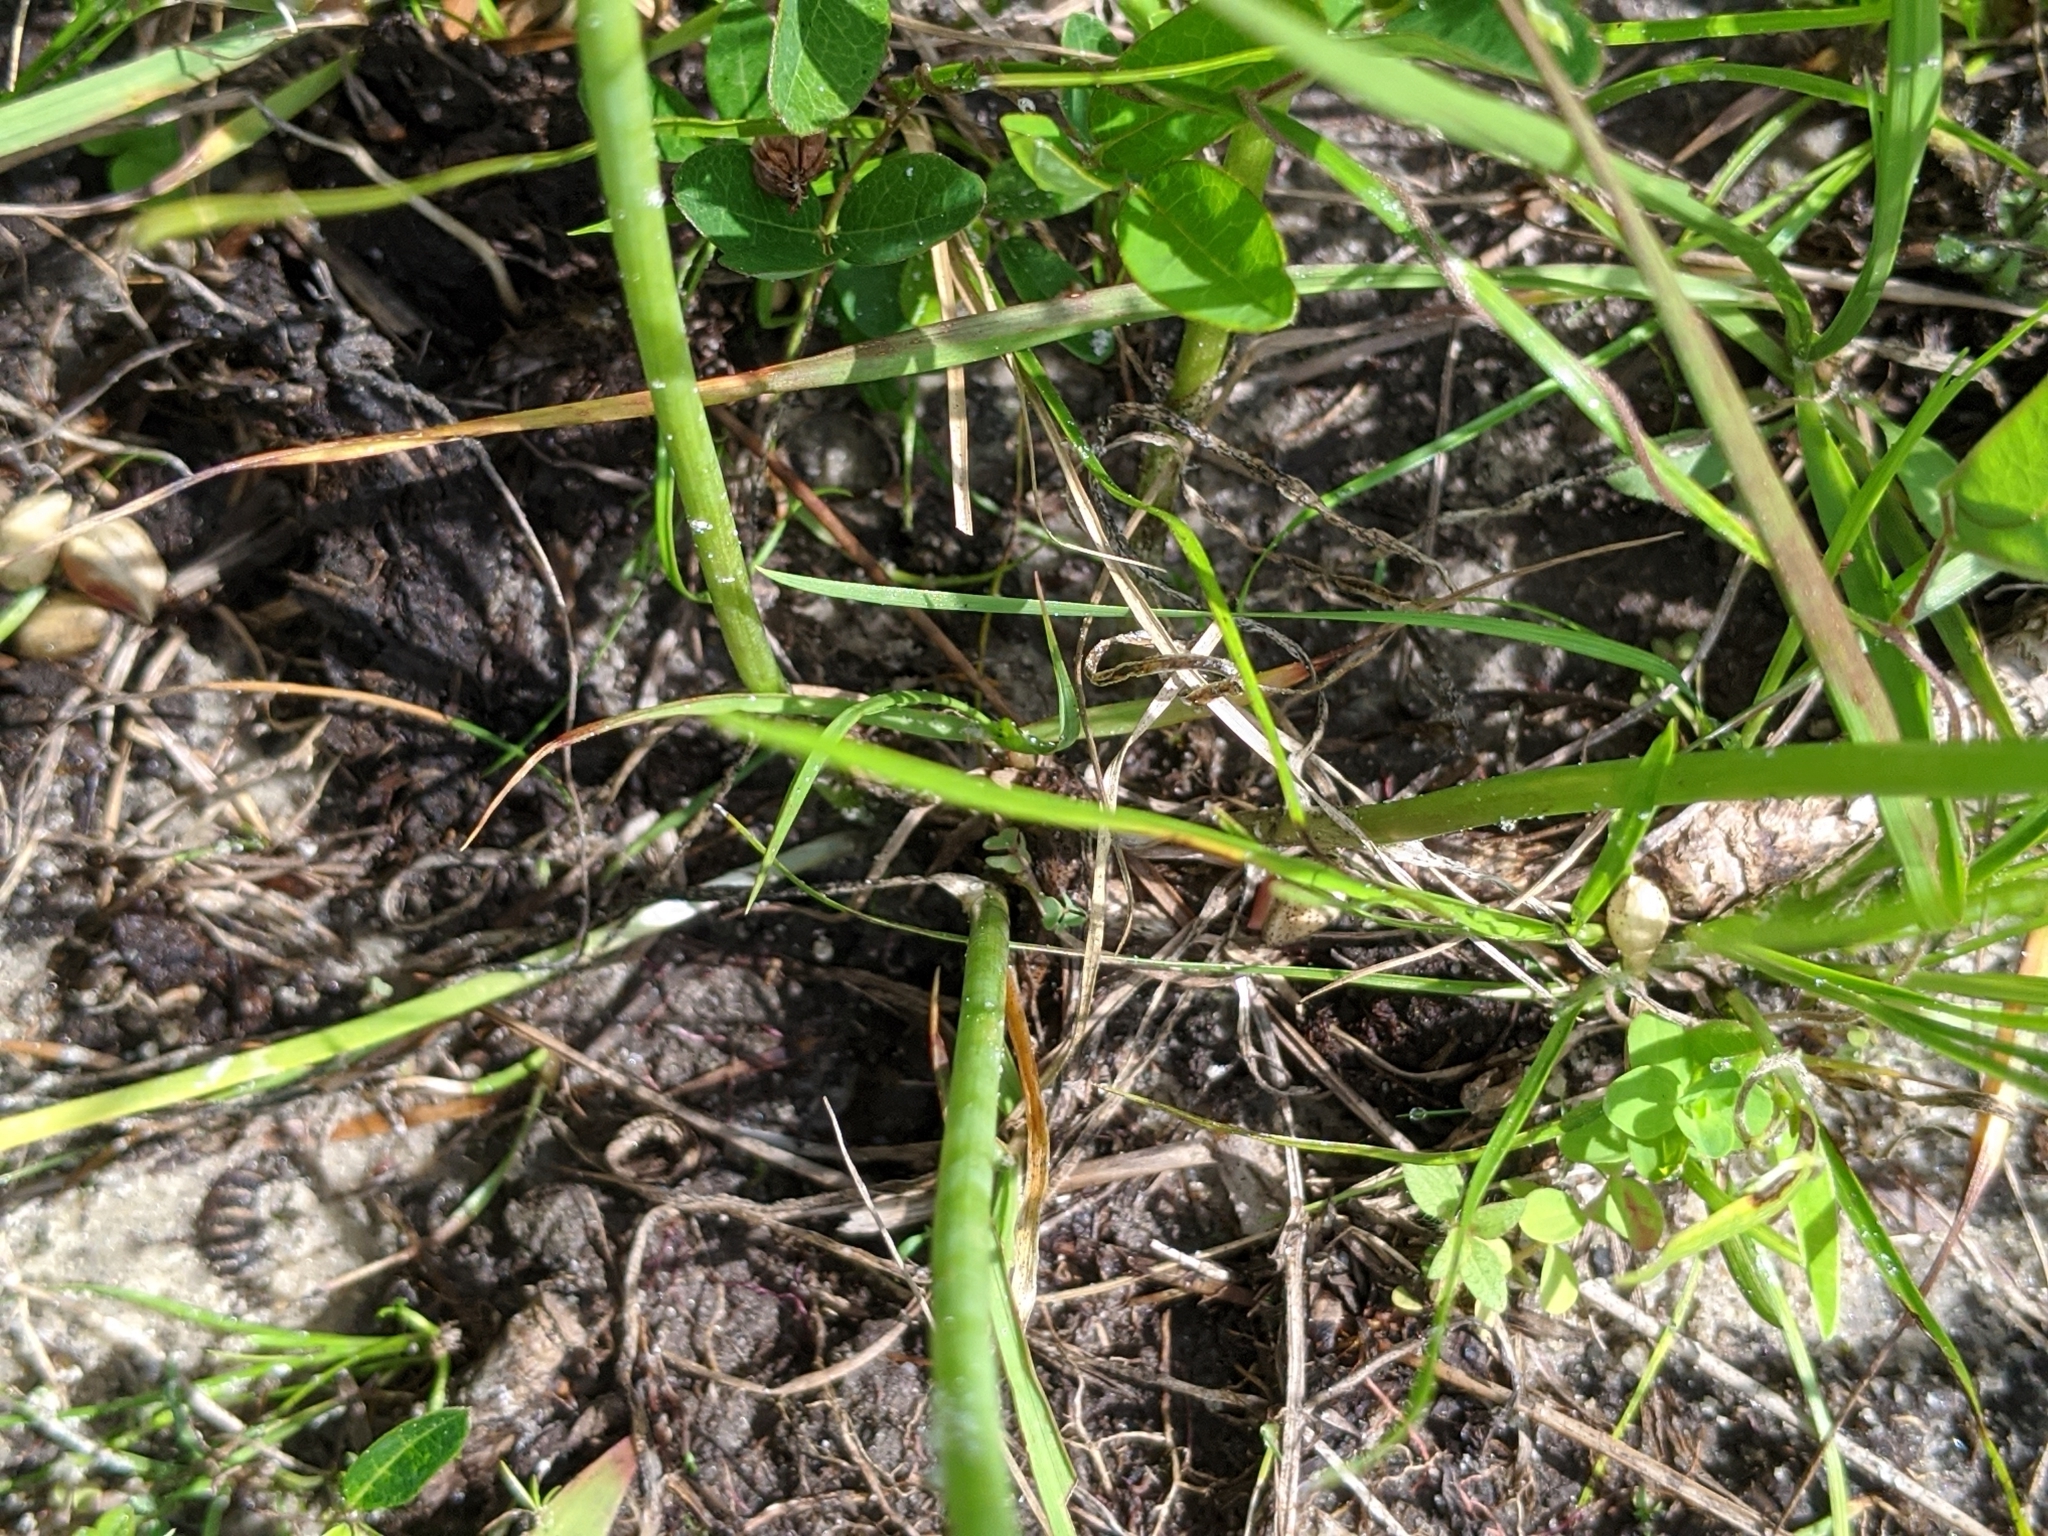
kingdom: Plantae
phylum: Tracheophyta
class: Liliopsida
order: Asparagales
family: Amaryllidaceae
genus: Allium
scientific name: Allium canadense
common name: Meadow garlic
